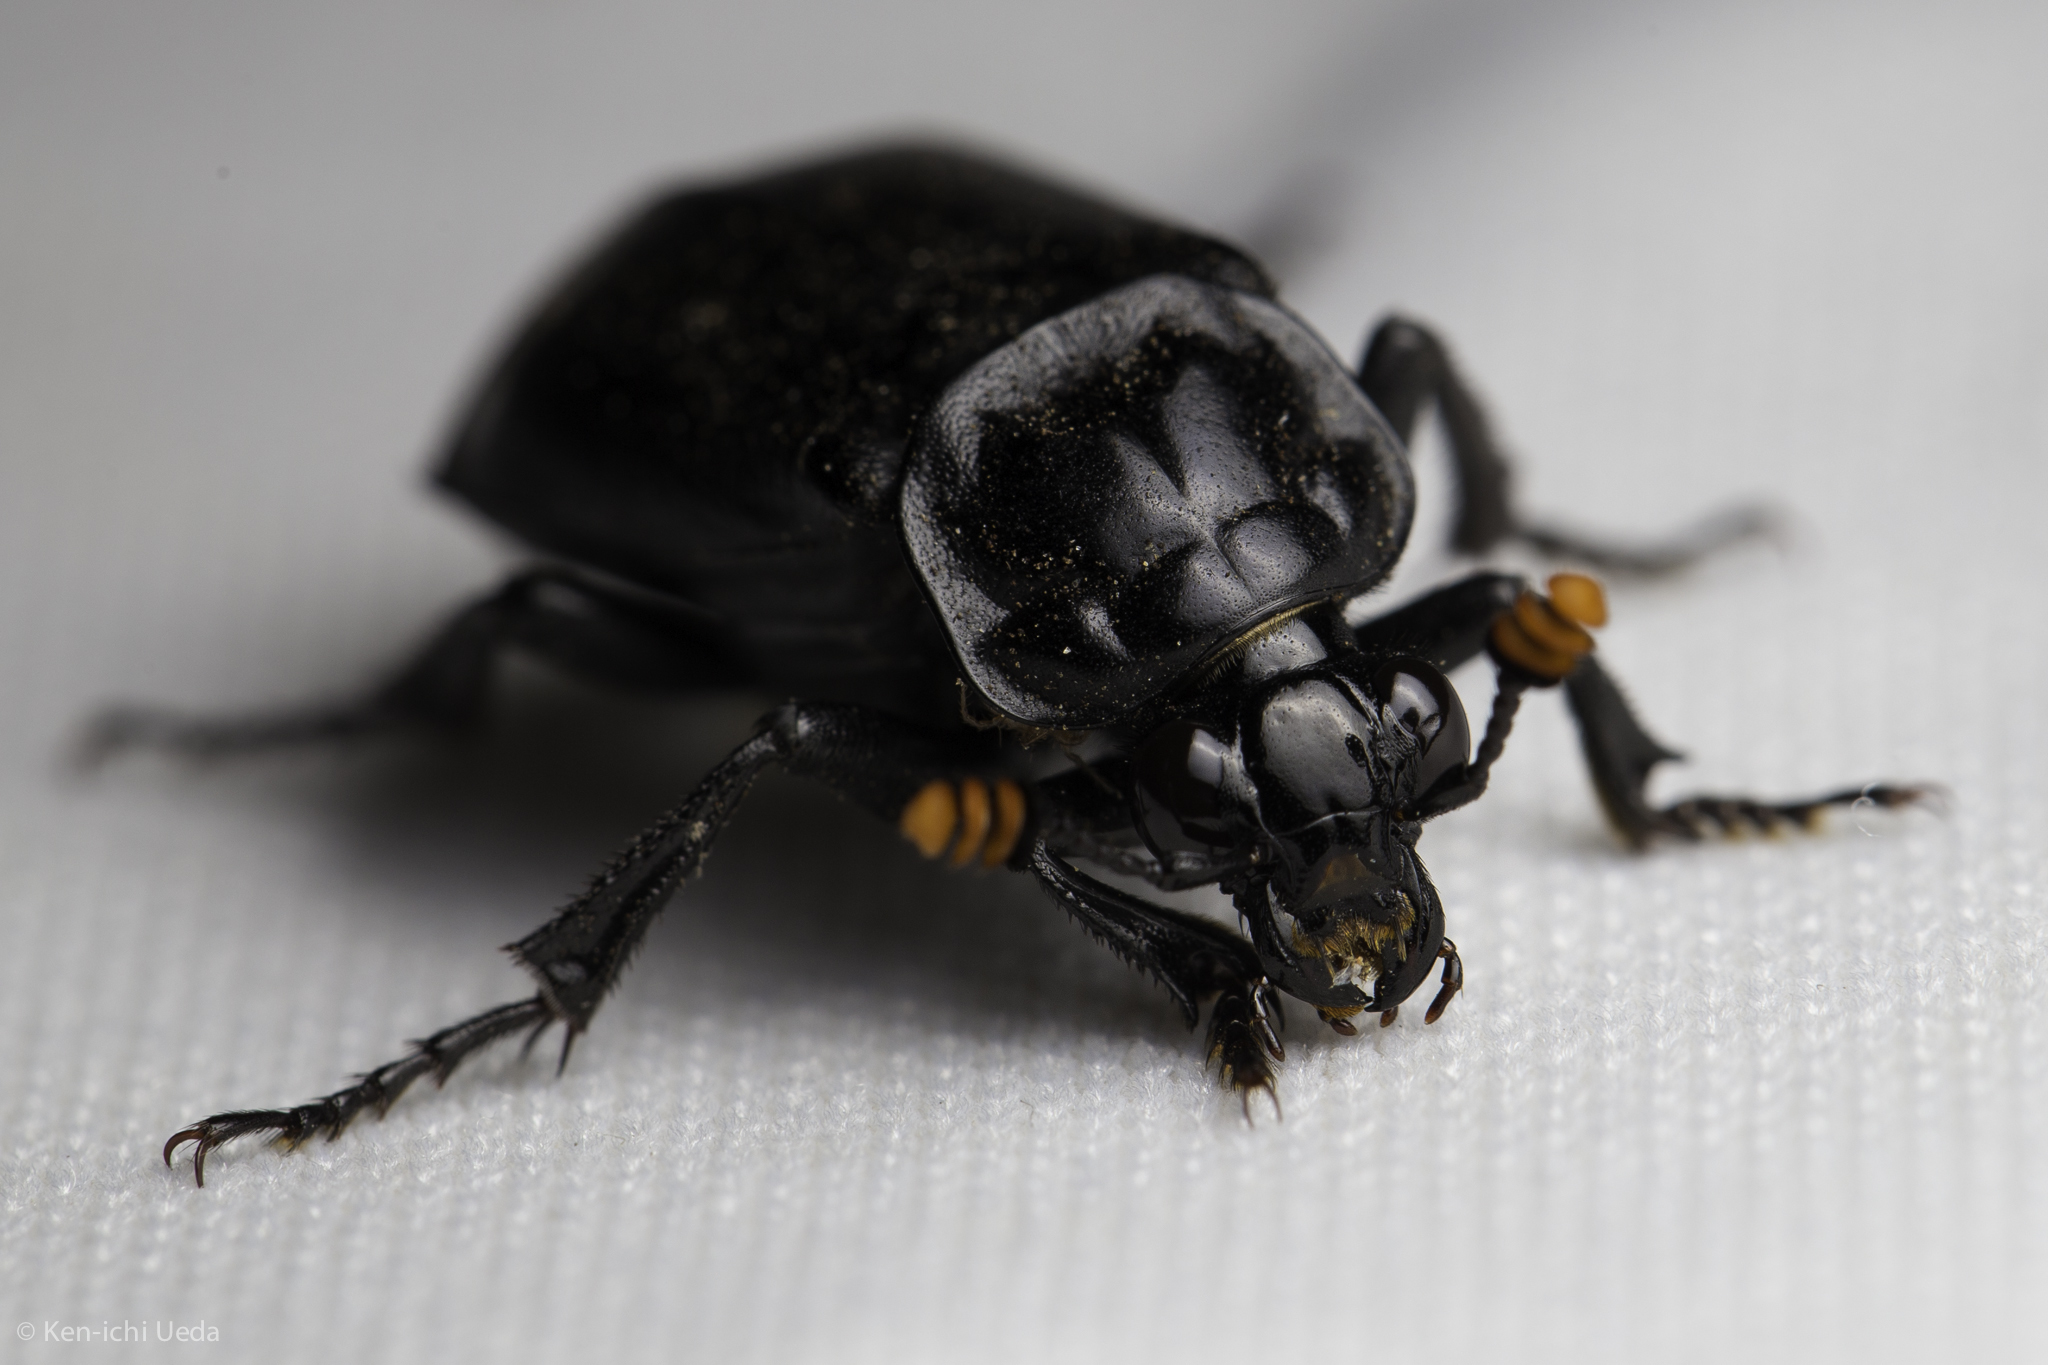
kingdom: Animalia
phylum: Arthropoda
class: Insecta
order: Coleoptera
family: Staphylinidae
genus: Nicrophorus
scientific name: Nicrophorus nigrita
